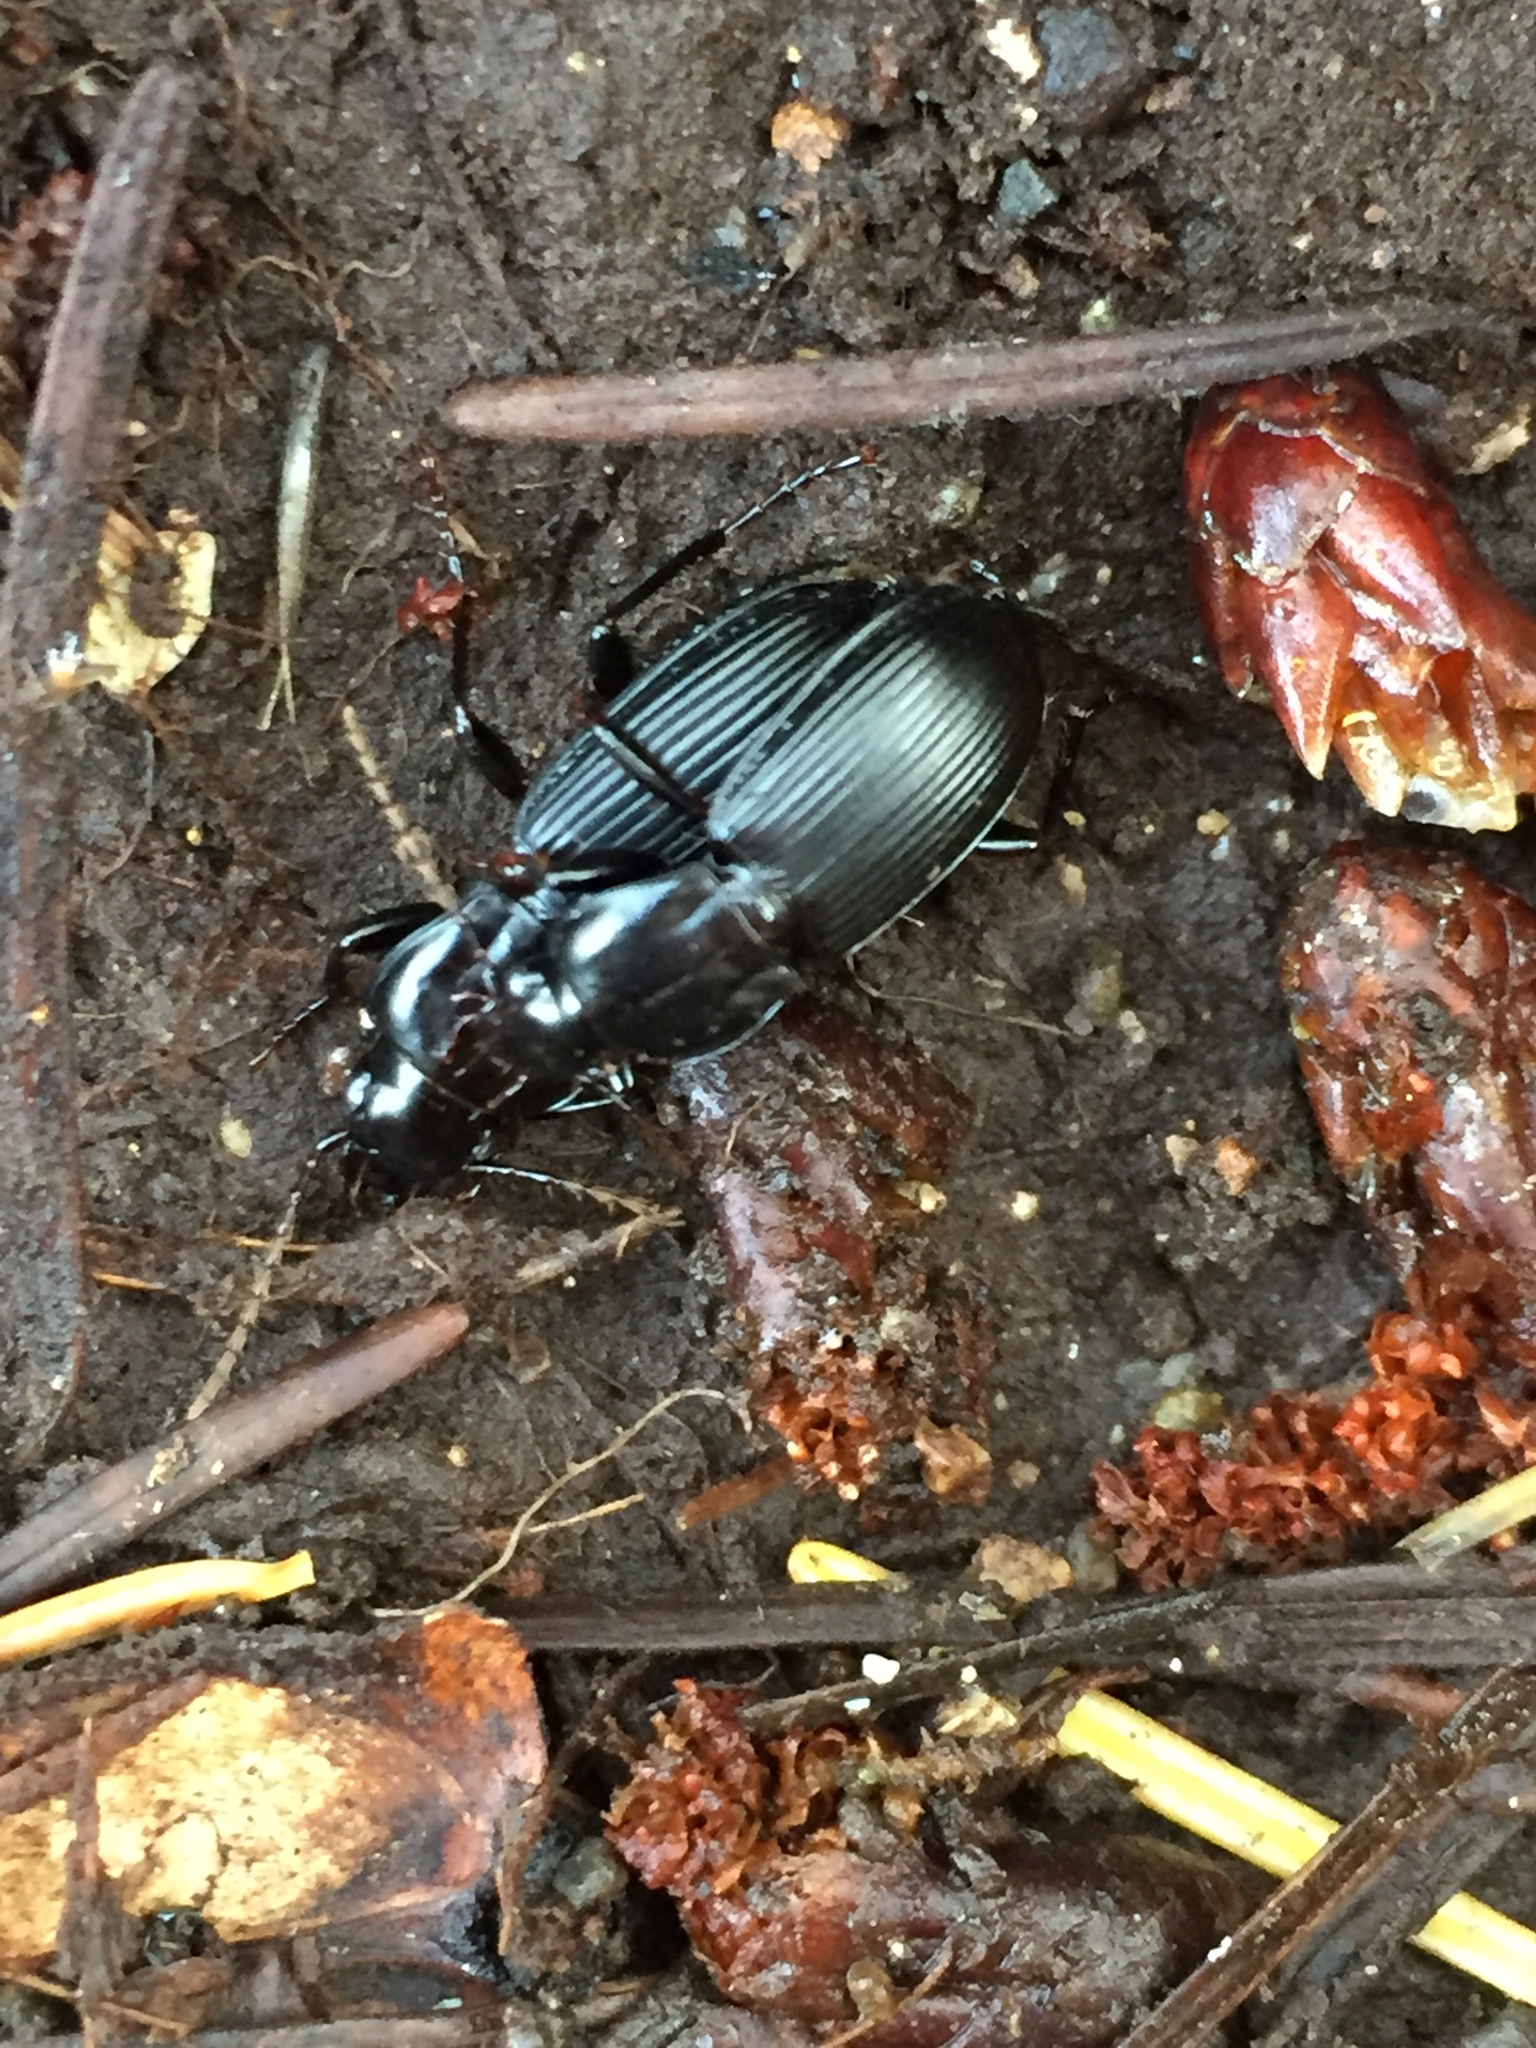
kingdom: Animalia
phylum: Arthropoda
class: Insecta
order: Coleoptera
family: Carabidae
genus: Pterostichus
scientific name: Pterostichus algidus
